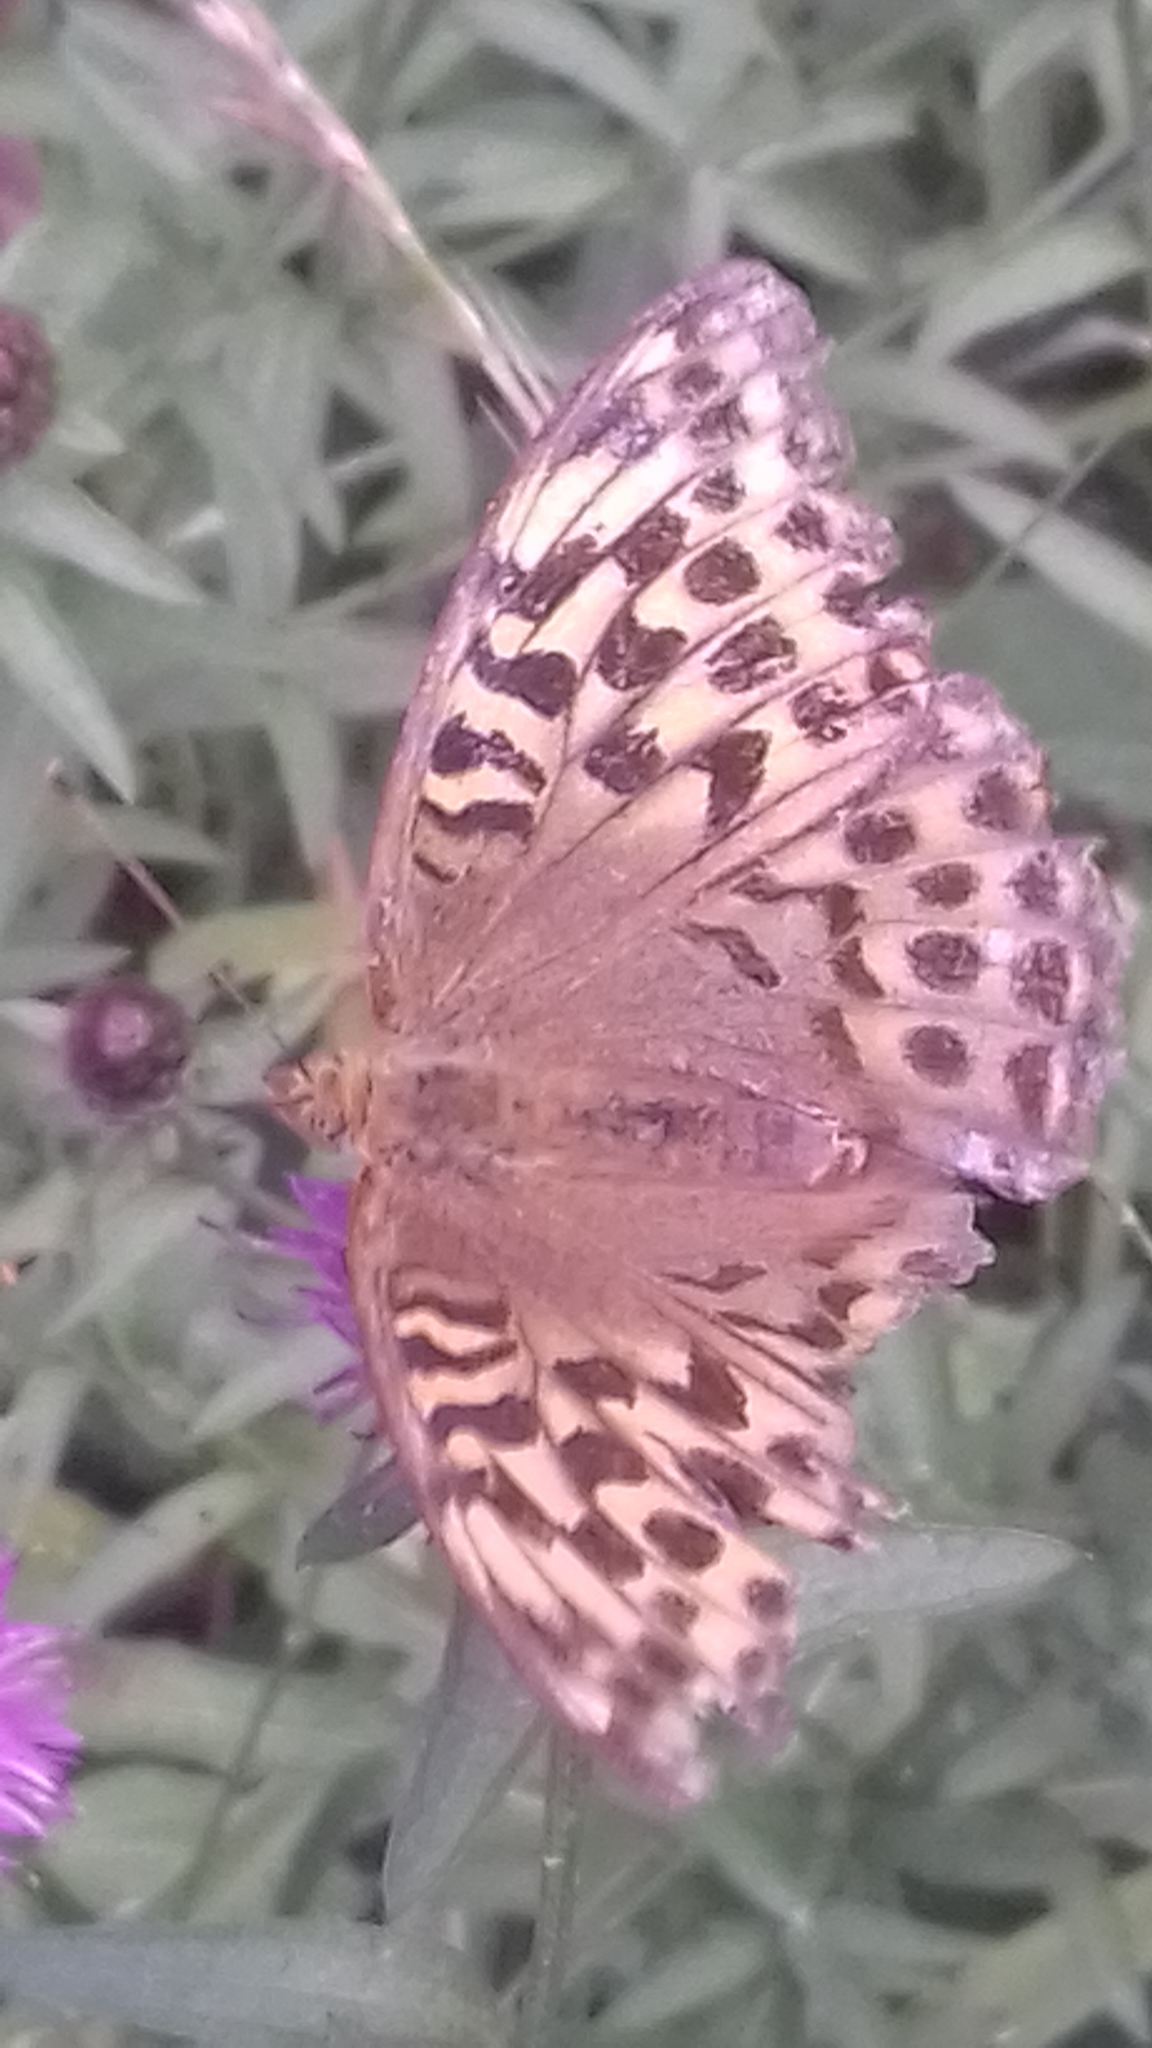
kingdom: Animalia
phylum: Arthropoda
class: Insecta
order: Lepidoptera
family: Nymphalidae
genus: Argynnis
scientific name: Argynnis paphia
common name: Silver-washed fritillary
